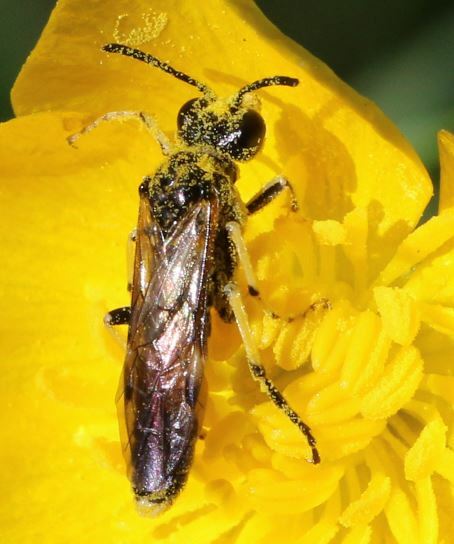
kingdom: Animalia
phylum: Arthropoda
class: Insecta
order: Hymenoptera
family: Tenthredinidae
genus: Paratenthredo
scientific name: Paratenthredo frauenfeldii
